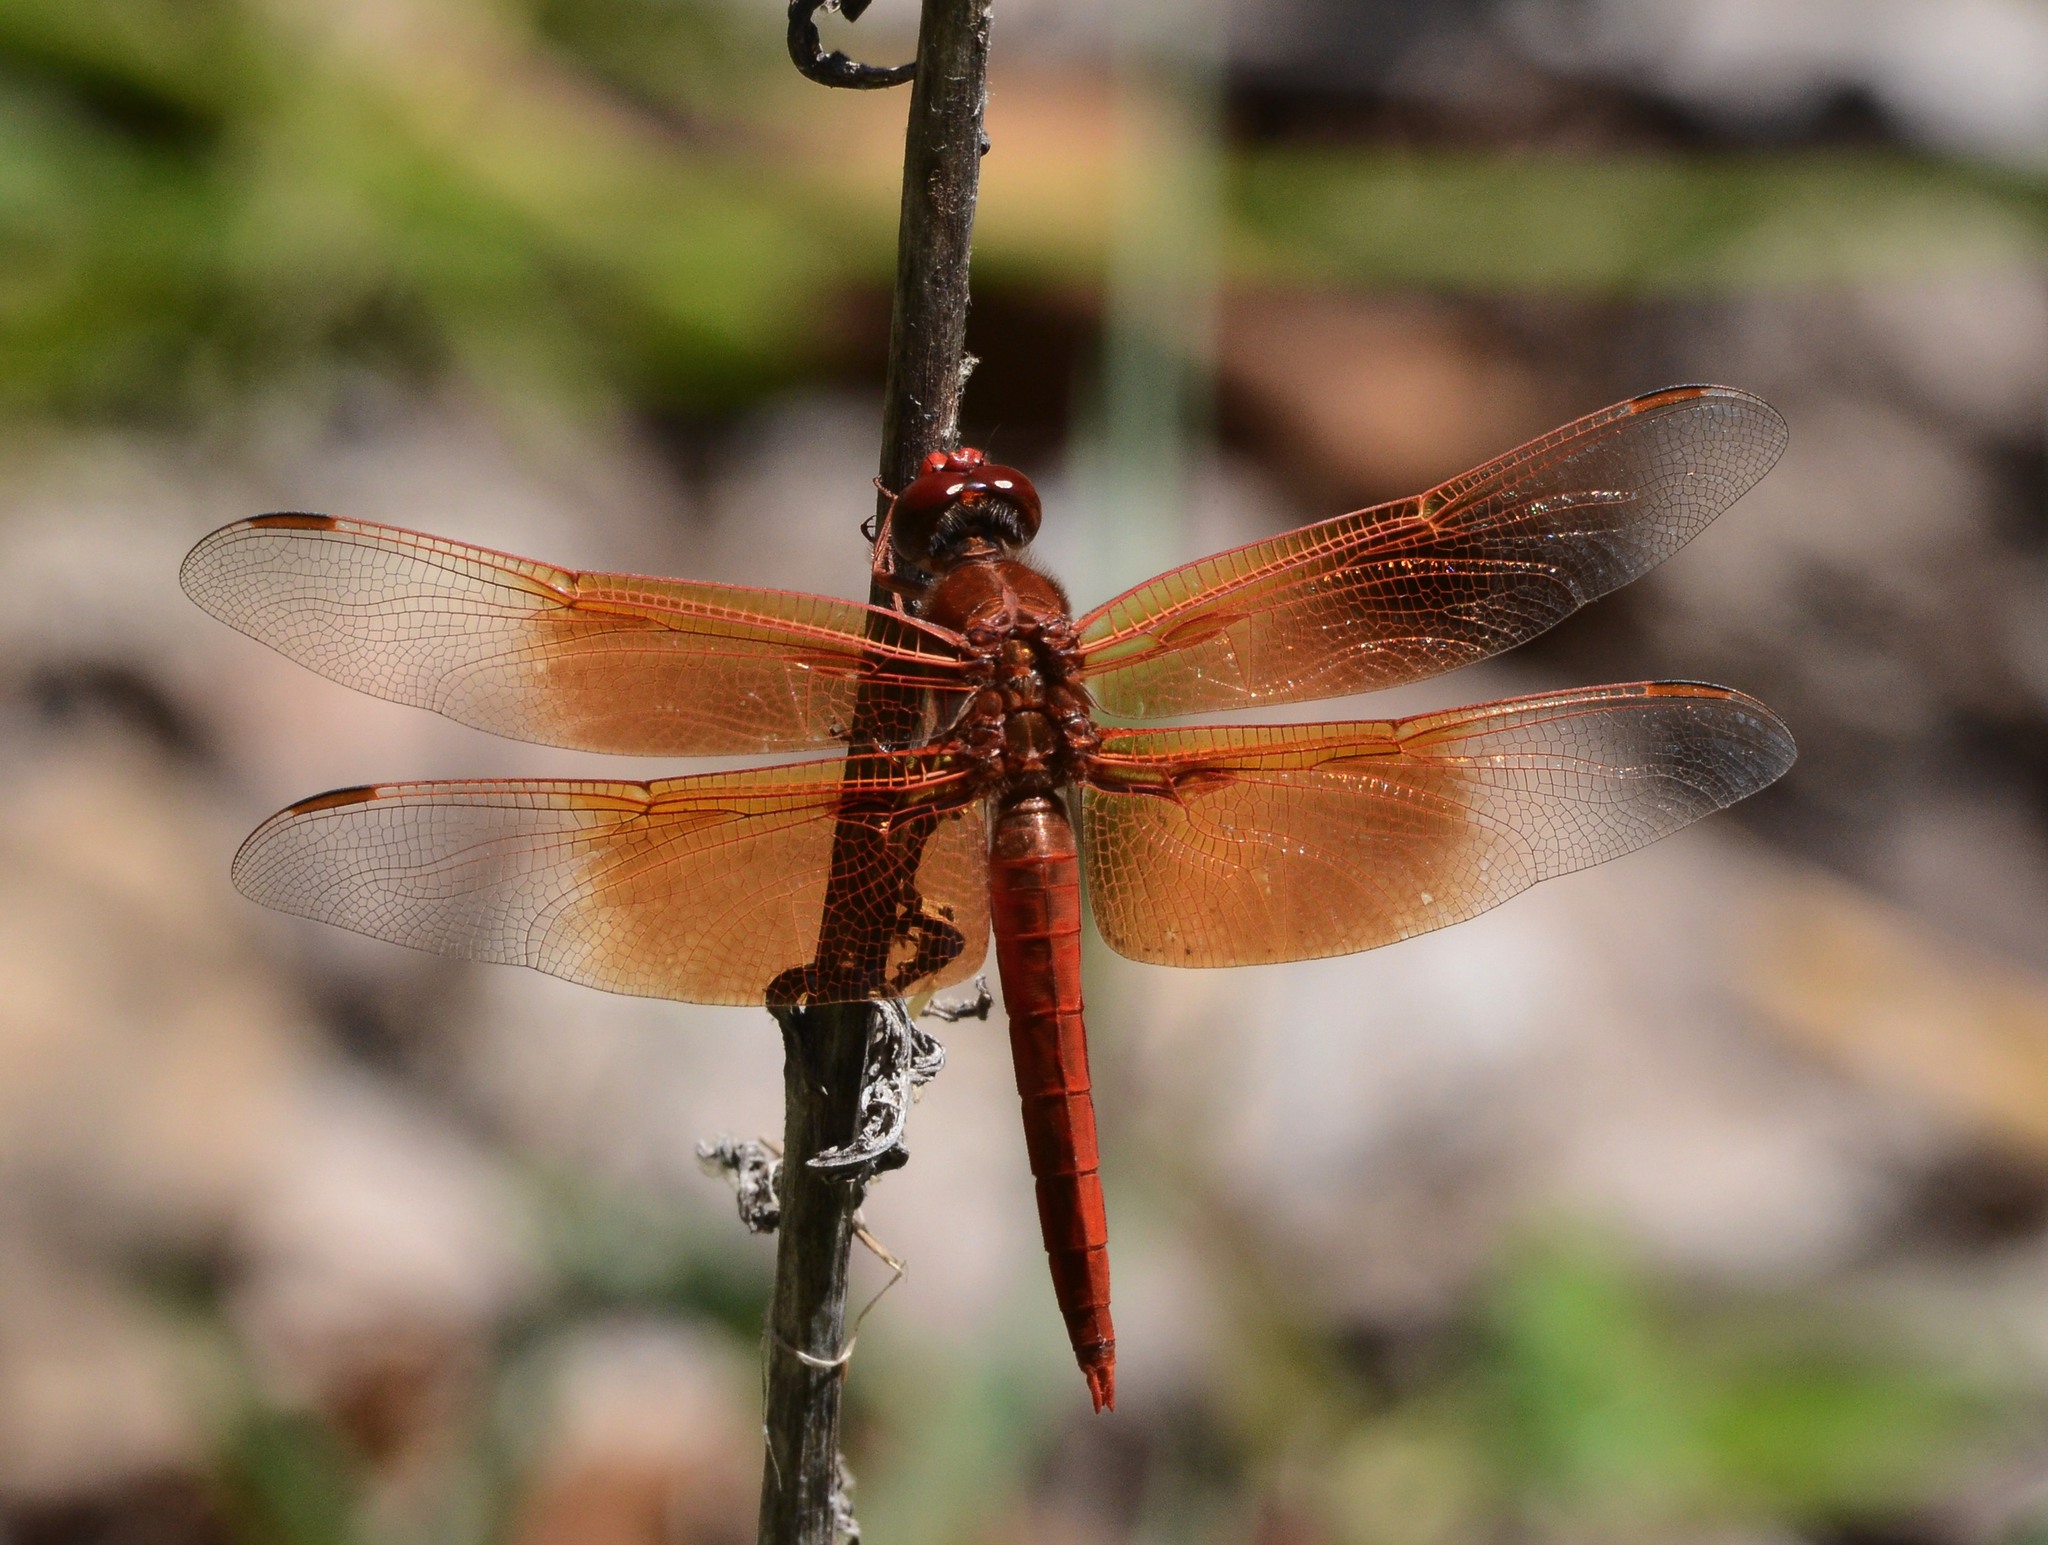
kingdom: Animalia
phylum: Arthropoda
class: Insecta
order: Odonata
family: Libellulidae
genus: Libellula
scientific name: Libellula saturata
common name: Flame skimmer
